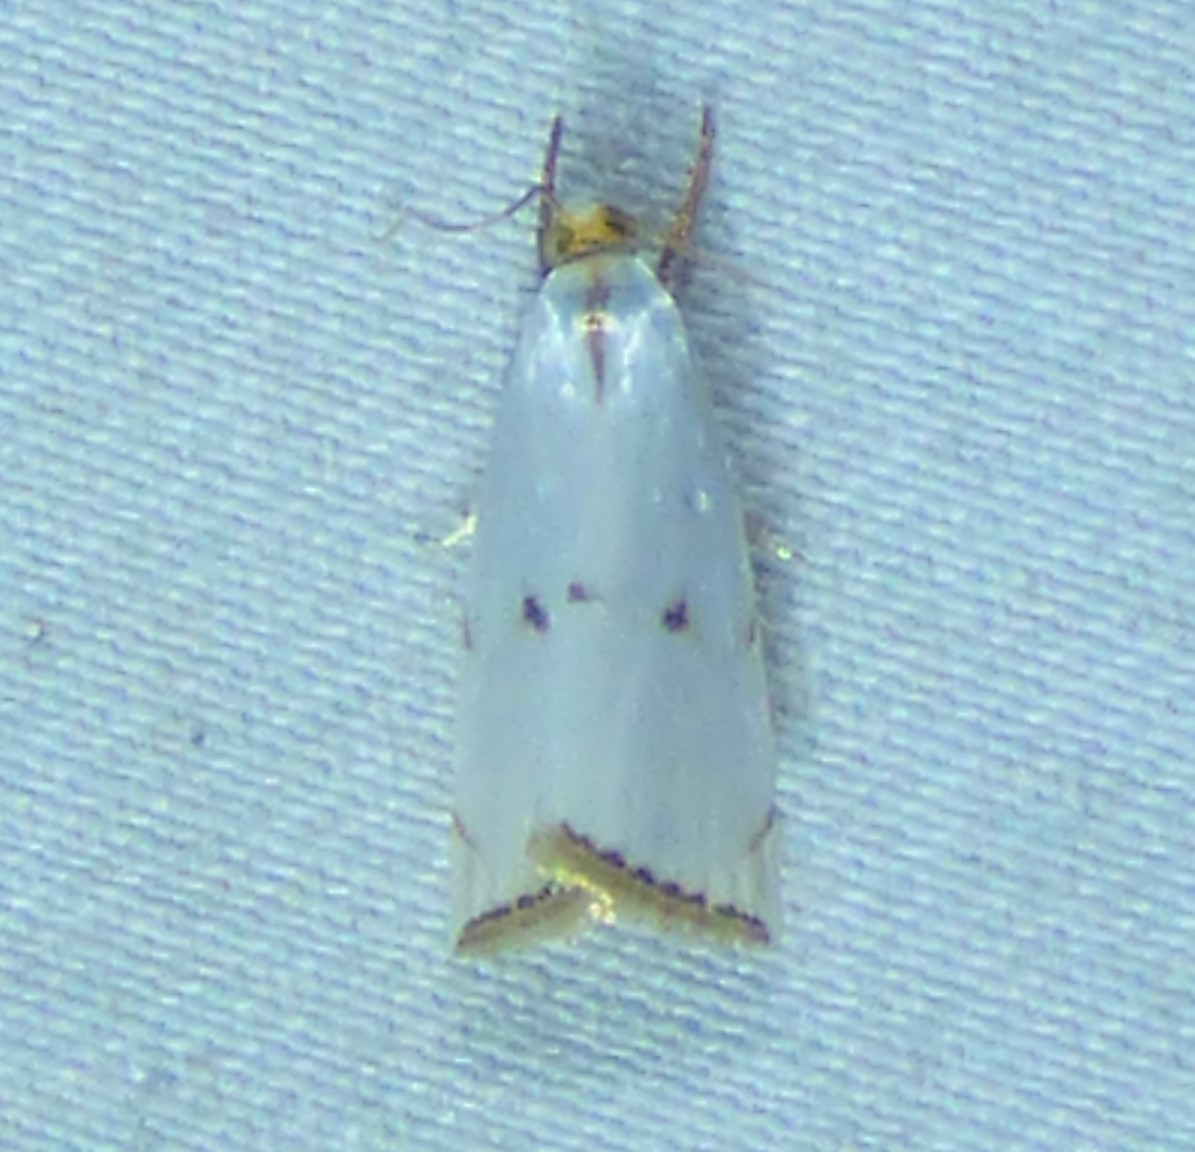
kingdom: Animalia
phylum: Arthropoda
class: Insecta
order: Lepidoptera
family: Crambidae
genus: Argyria
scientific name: Argyria pusillalis
